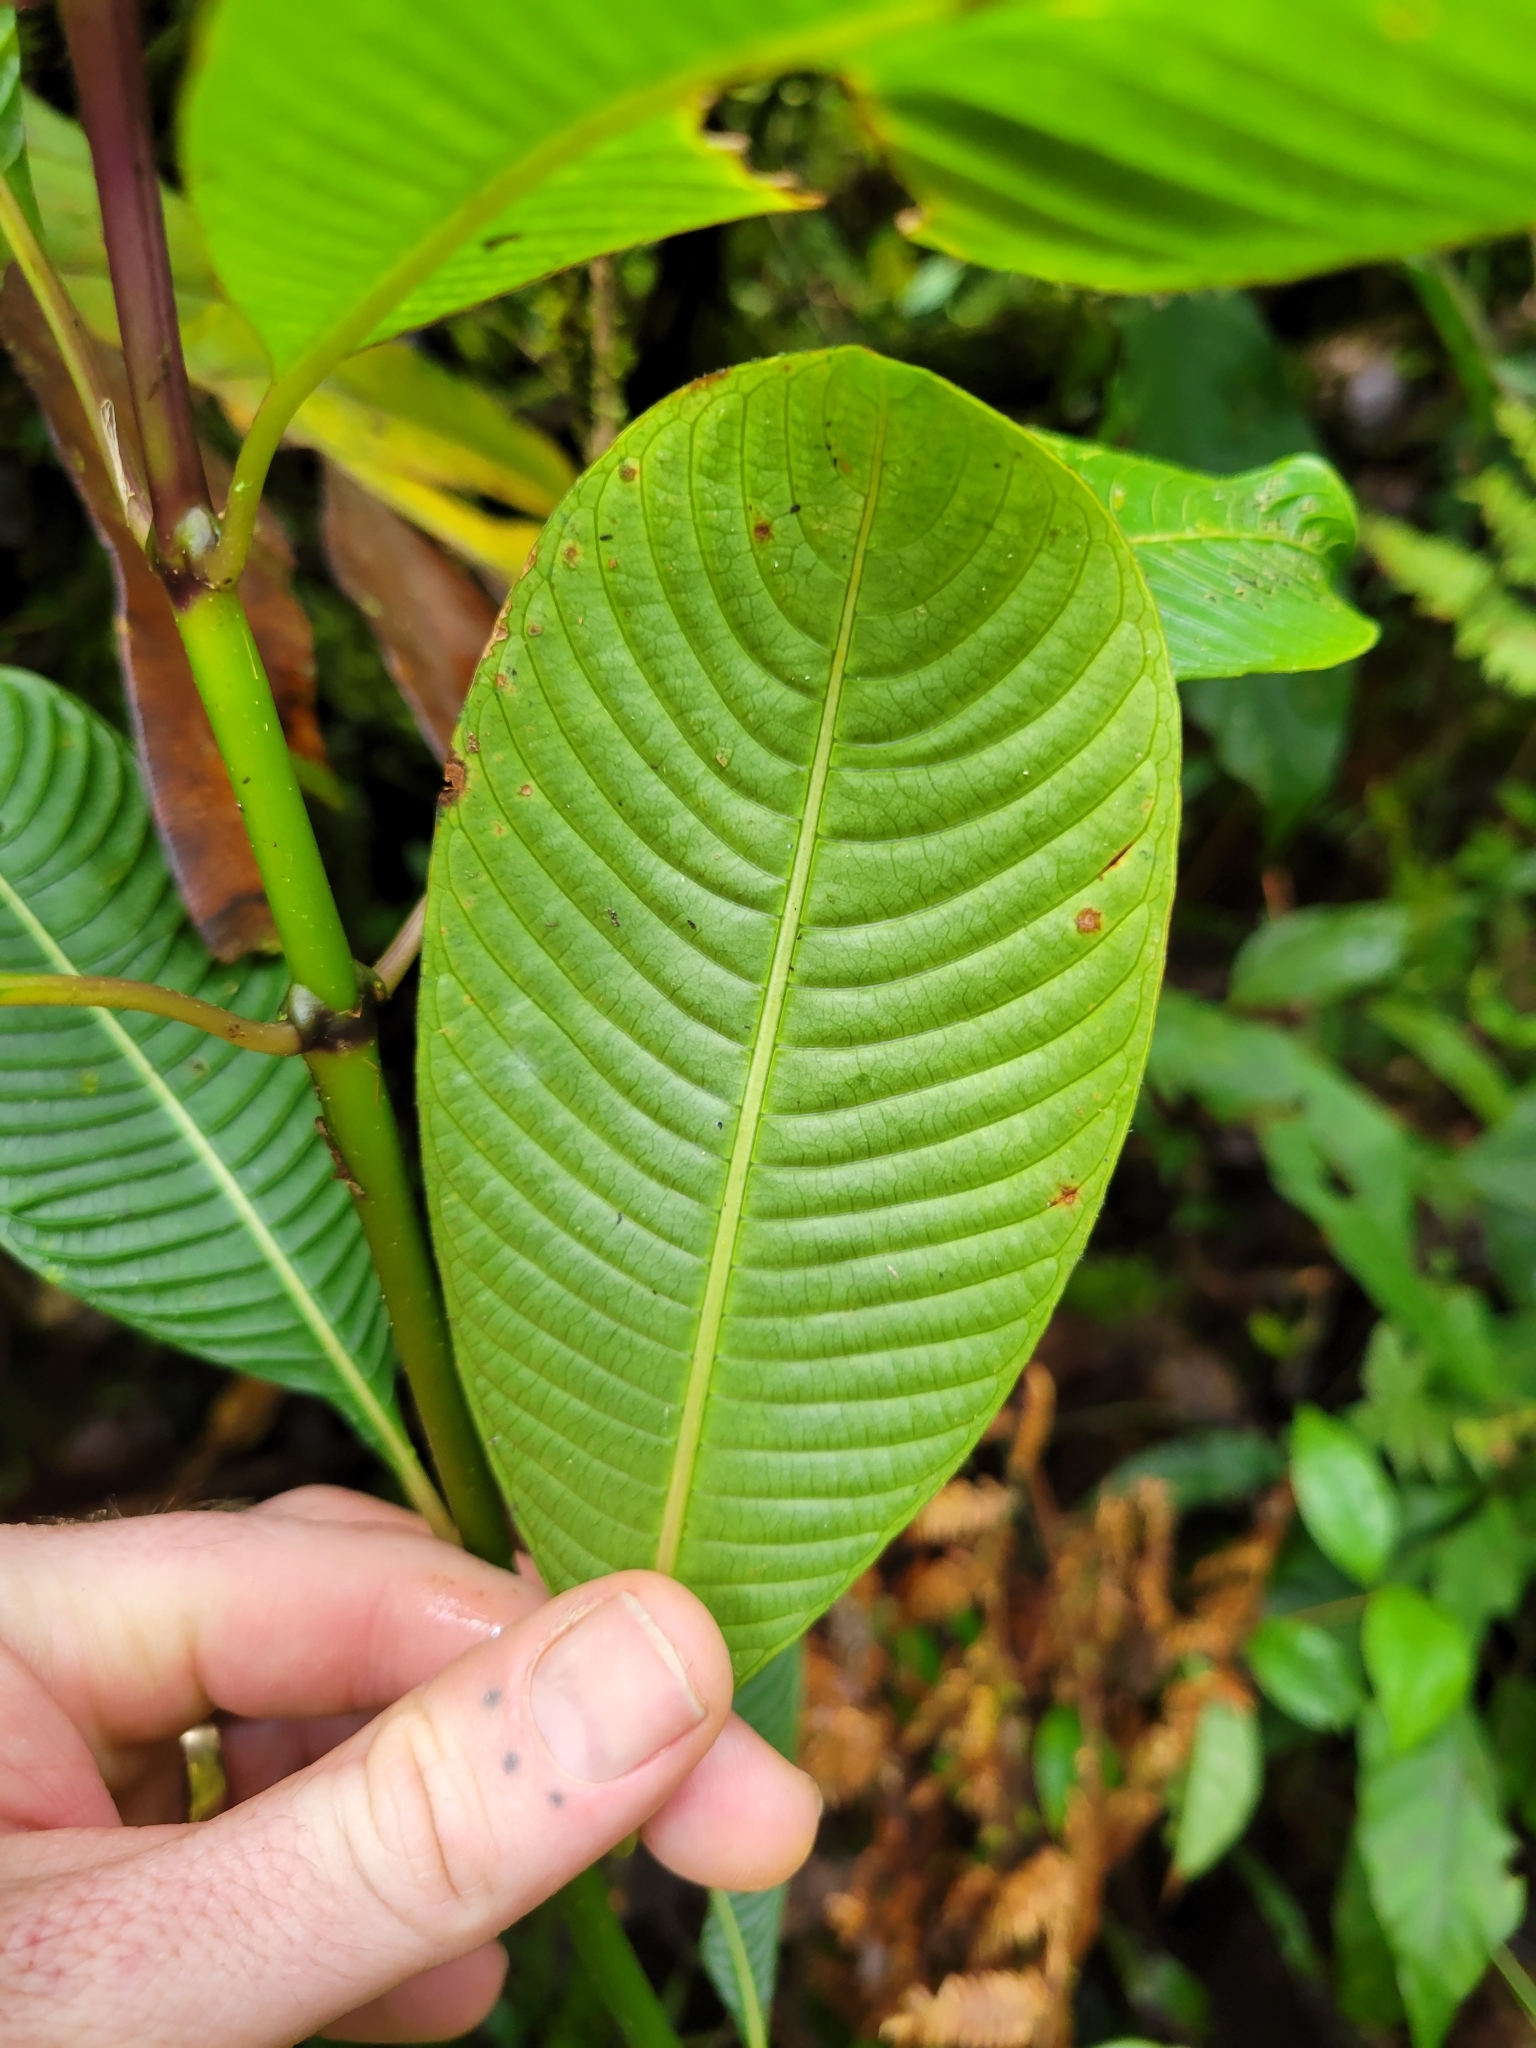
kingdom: Plantae
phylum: Tracheophyta
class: Magnoliopsida
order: Gentianales
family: Rubiaceae
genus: Palicourea
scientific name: Palicourea chiriquiensis
